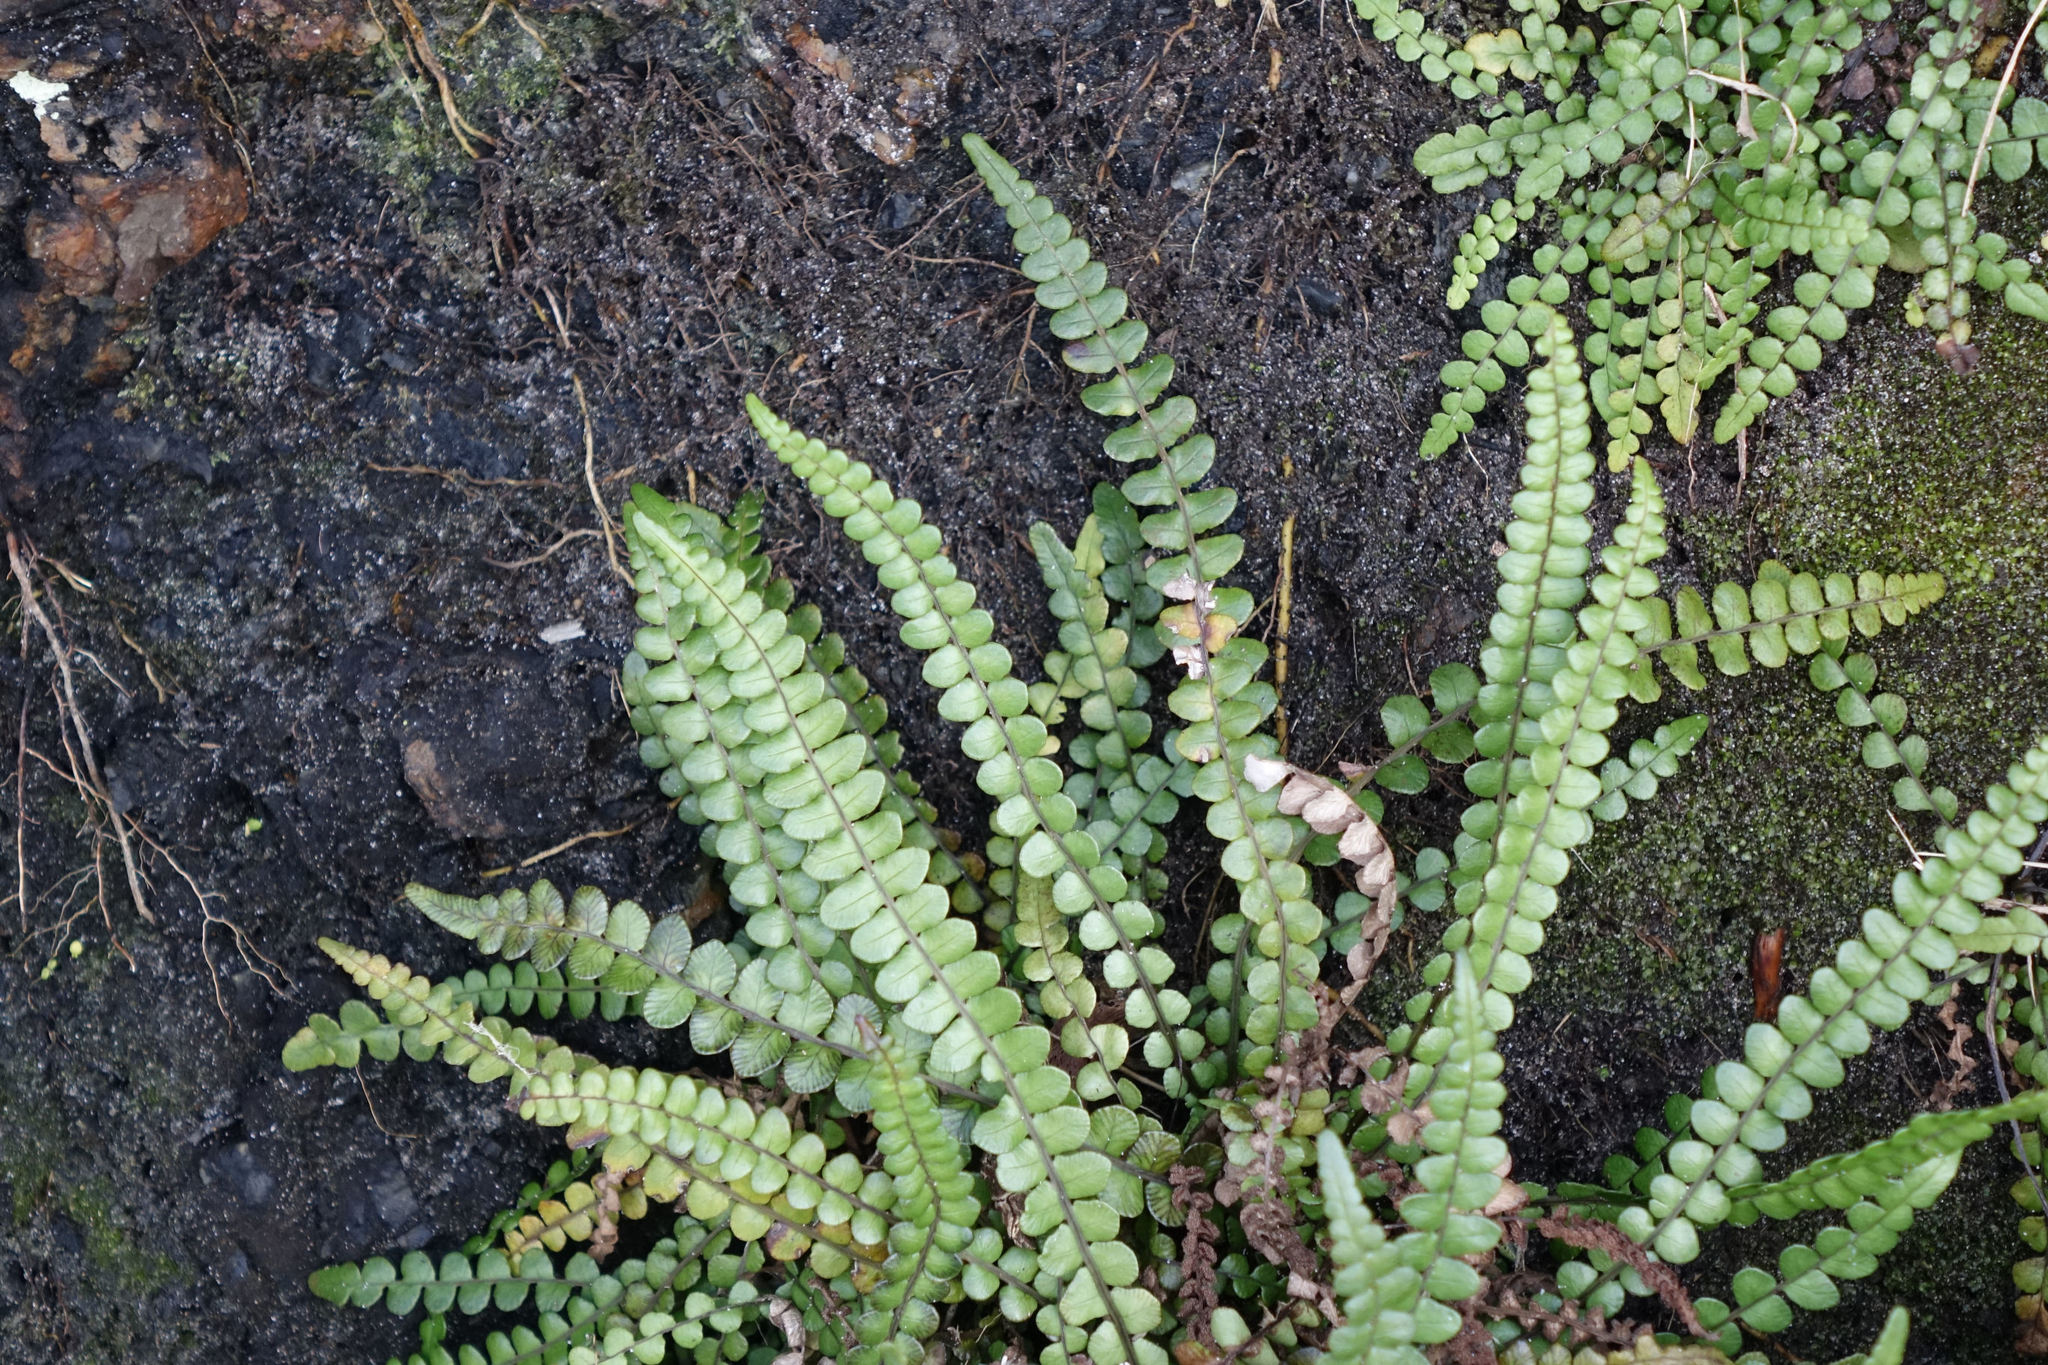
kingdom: Plantae
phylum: Tracheophyta
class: Polypodiopsida
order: Polypodiales
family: Blechnaceae
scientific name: Blechnaceae
